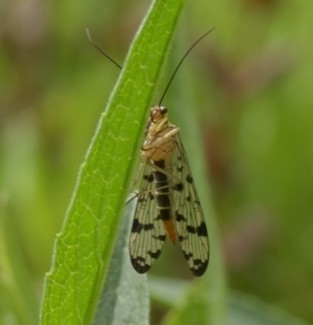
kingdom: Animalia
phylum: Arthropoda
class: Insecta
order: Mecoptera
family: Panorpidae
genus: Panorpa
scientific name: Panorpa germanica
